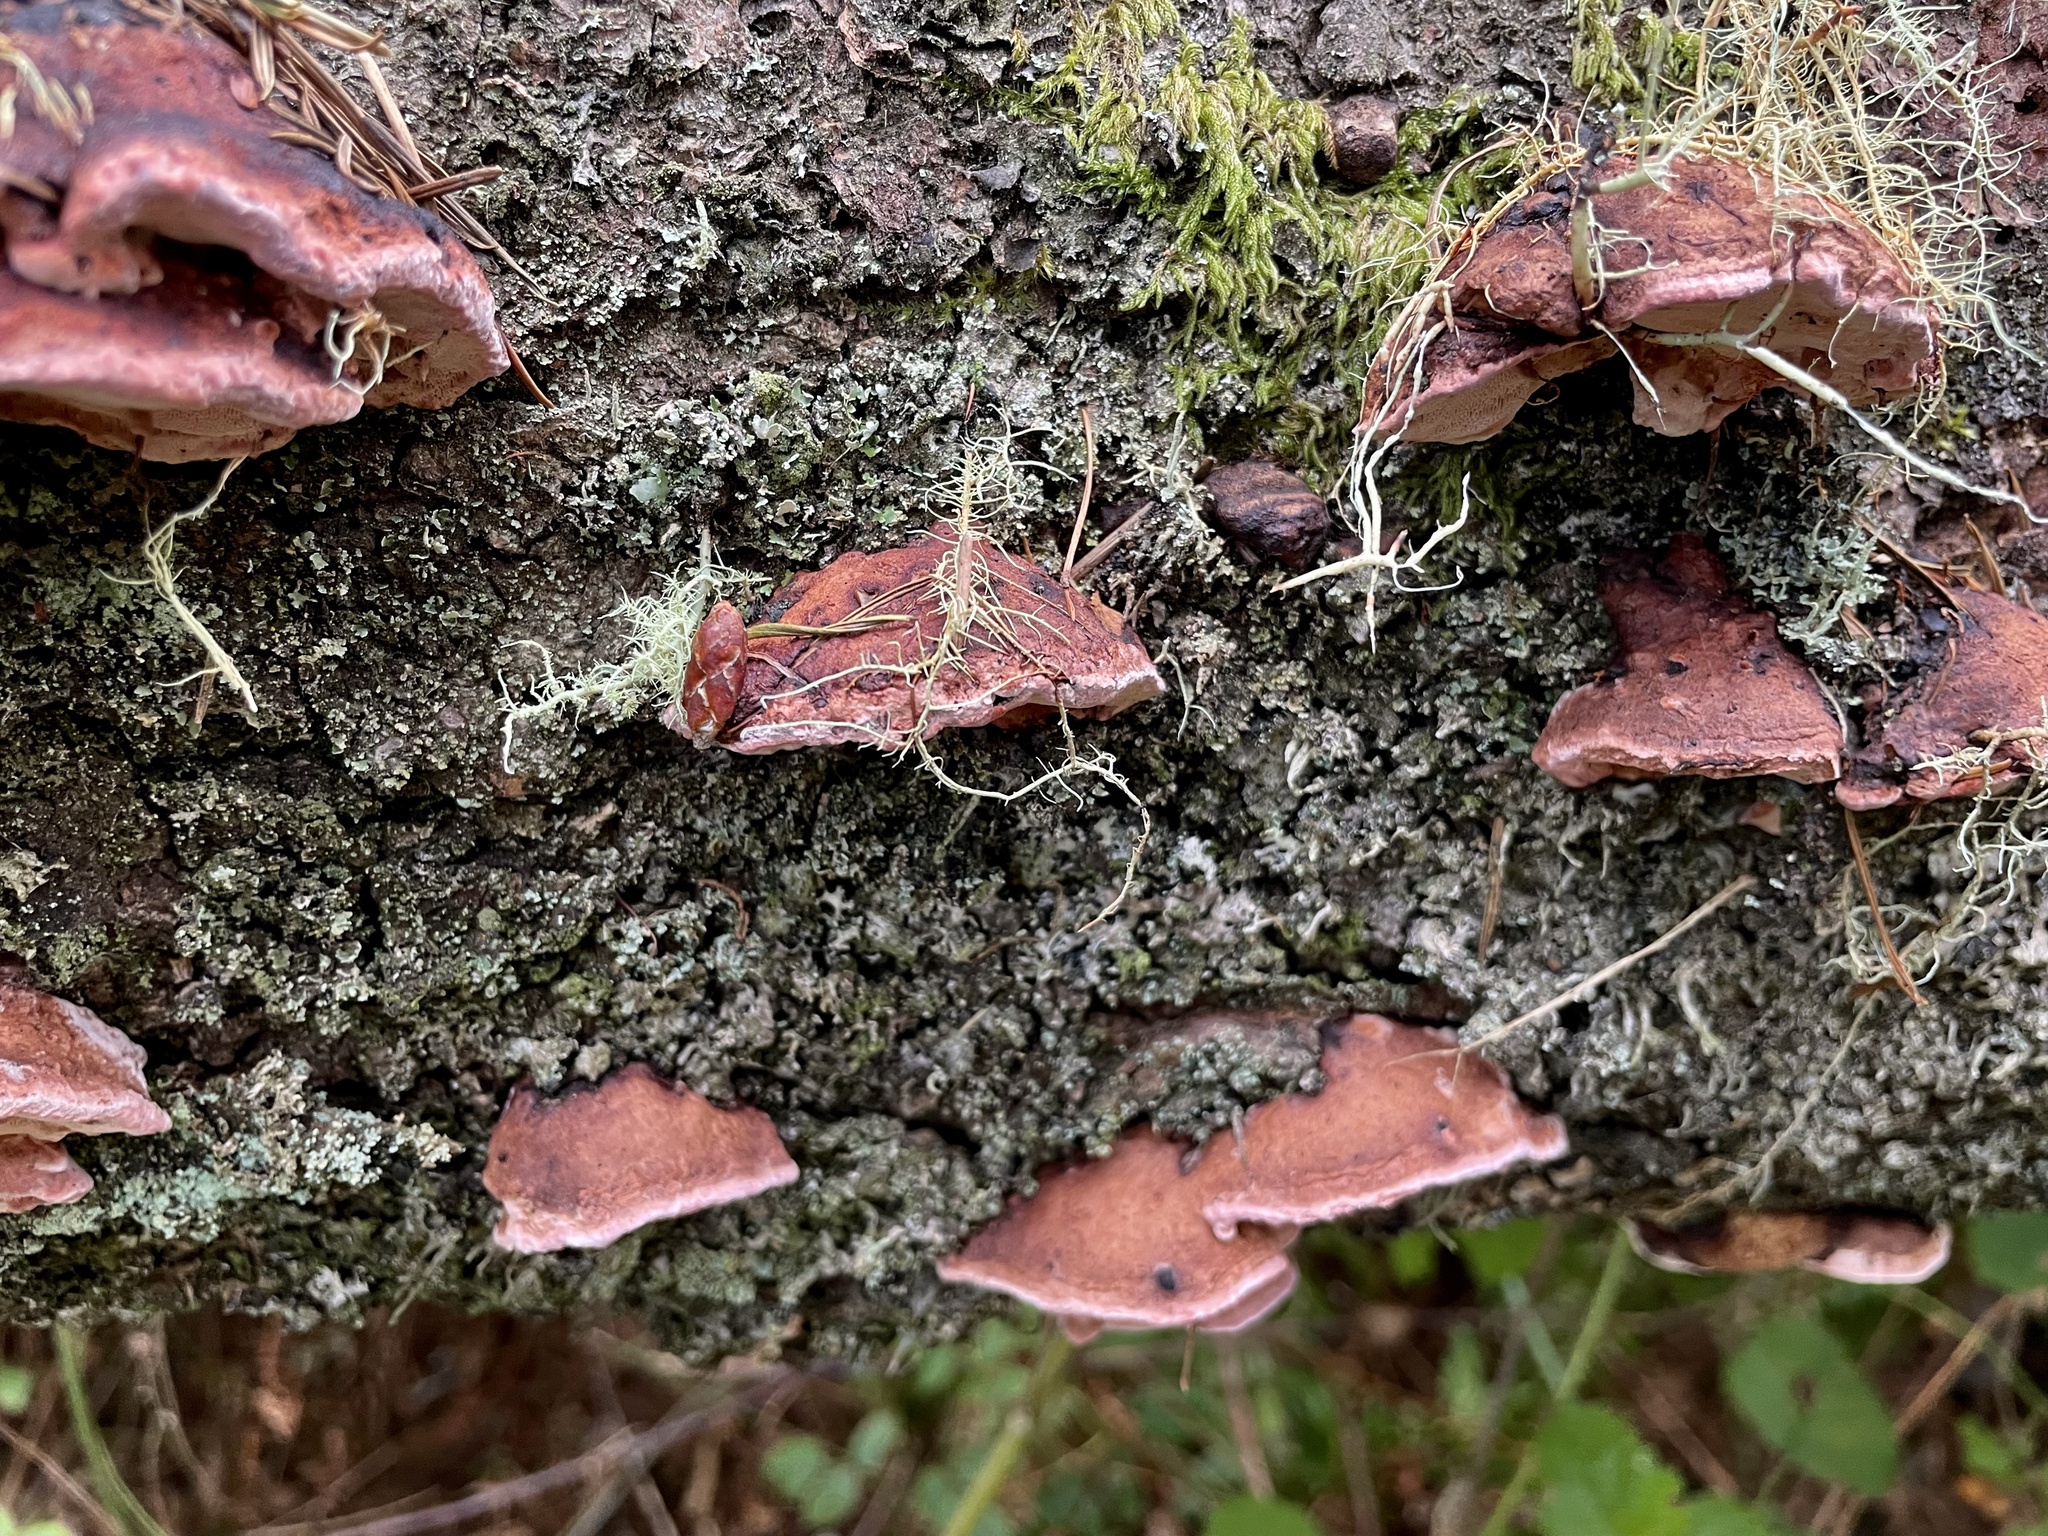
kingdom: Fungi
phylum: Basidiomycota
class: Agaricomycetes
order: Polyporales
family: Fomitopsidaceae
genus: Rhodofomes
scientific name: Rhodofomes cajanderi
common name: Rosy conk
